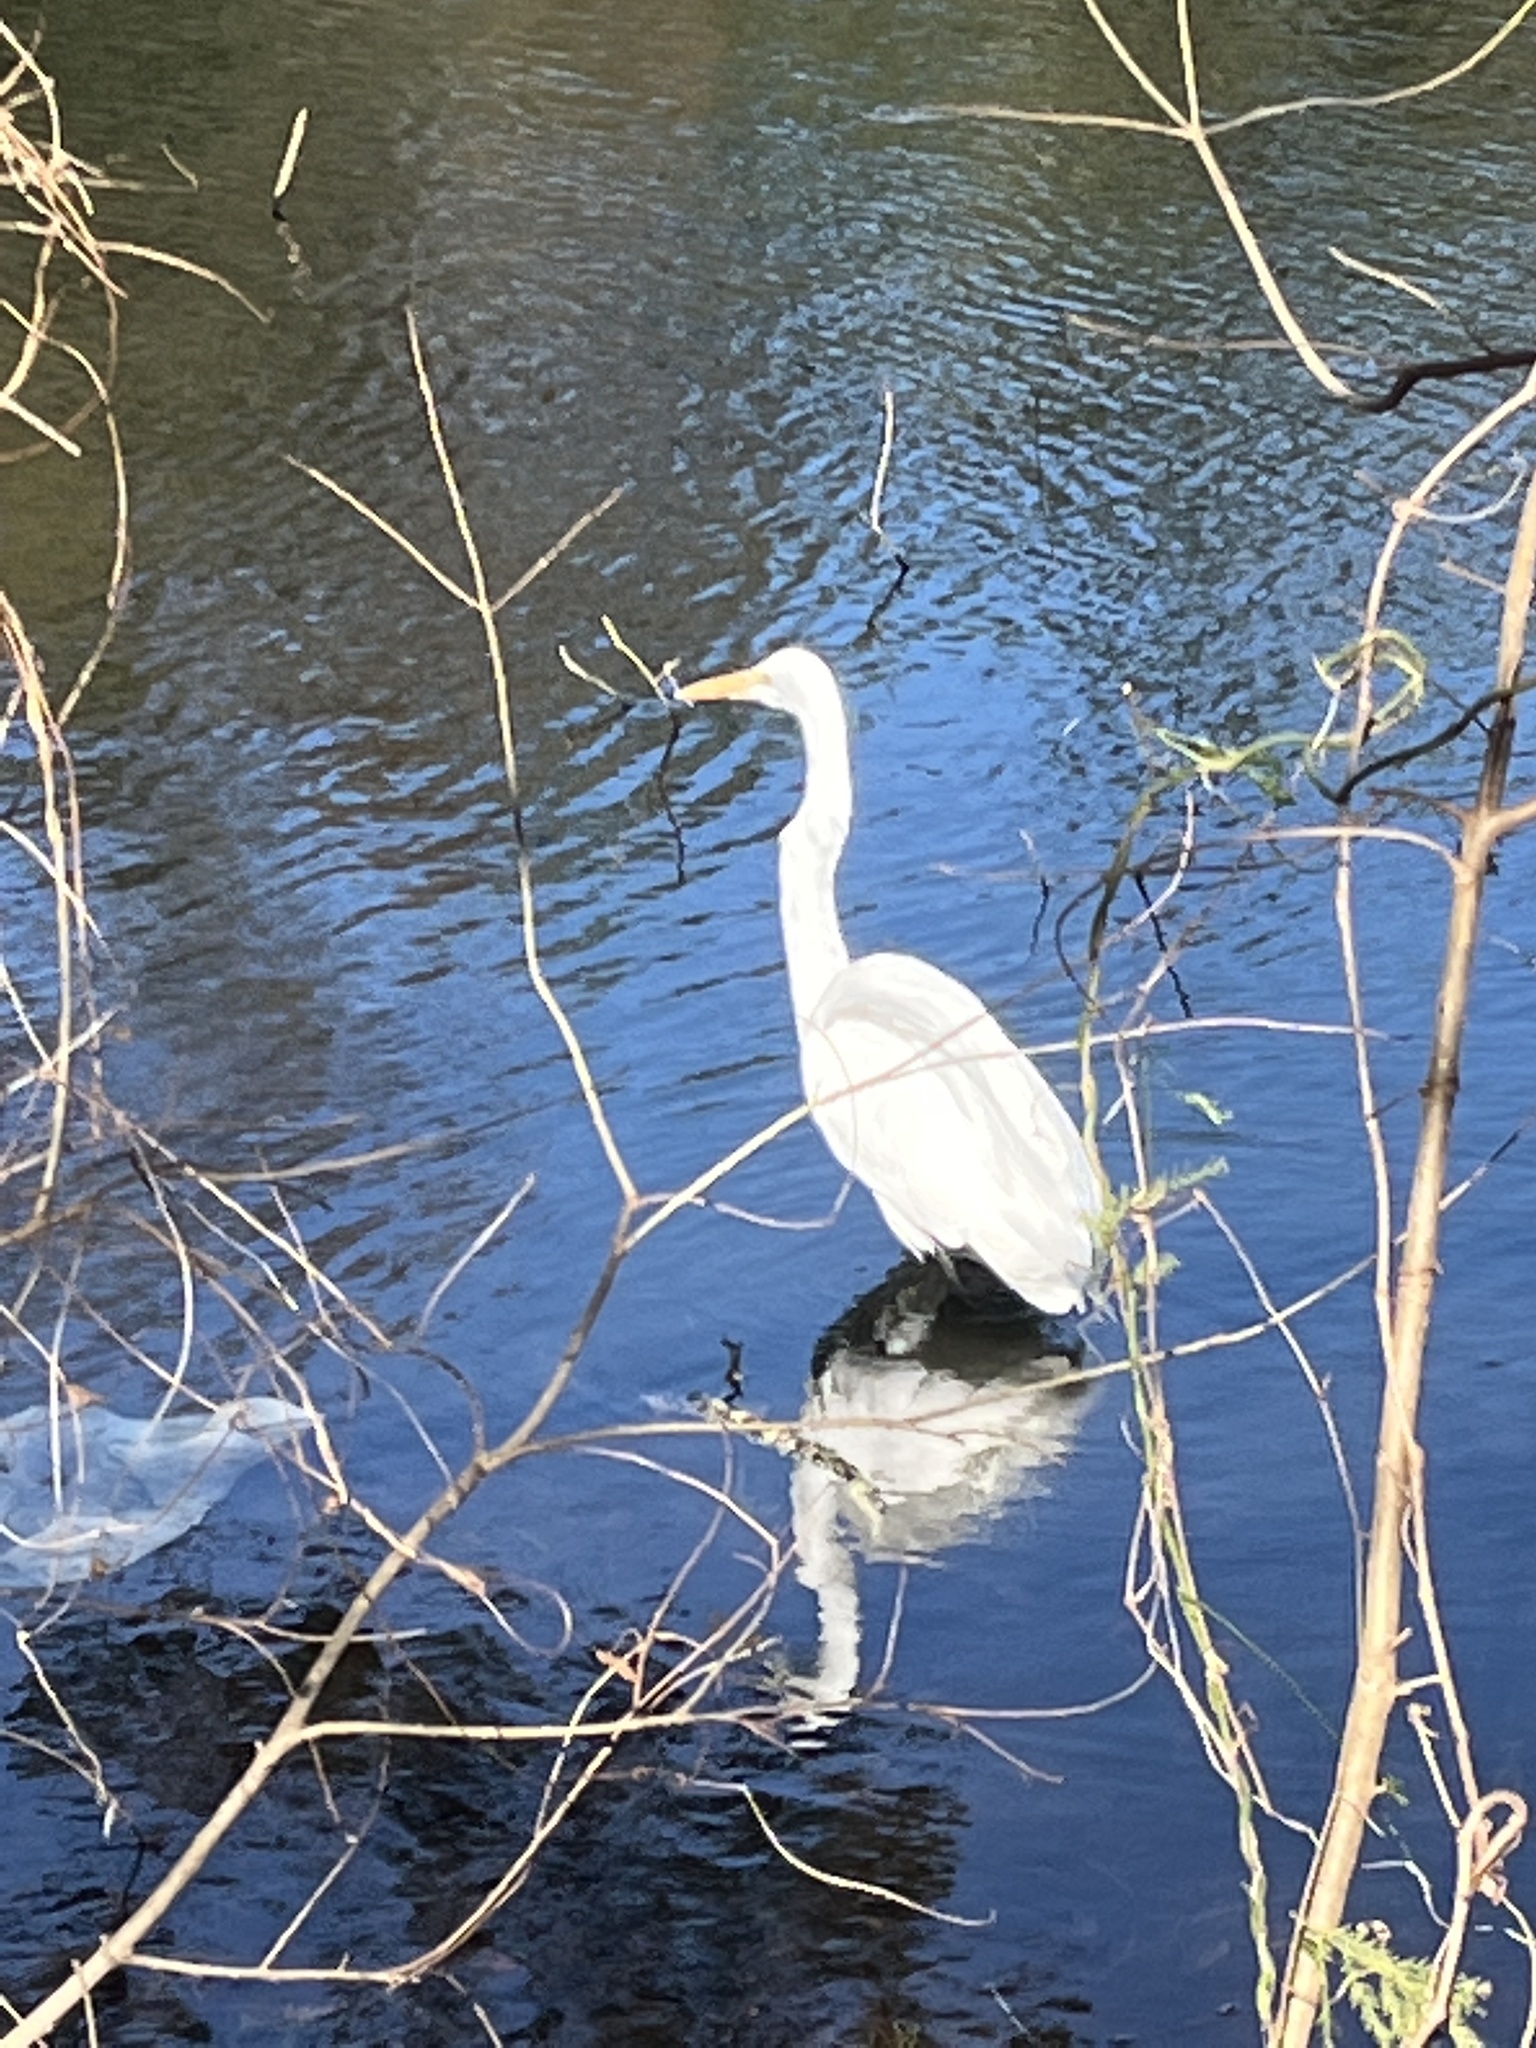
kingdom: Animalia
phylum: Chordata
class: Aves
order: Pelecaniformes
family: Ardeidae
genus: Ardea
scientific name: Ardea alba
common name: Great egret
